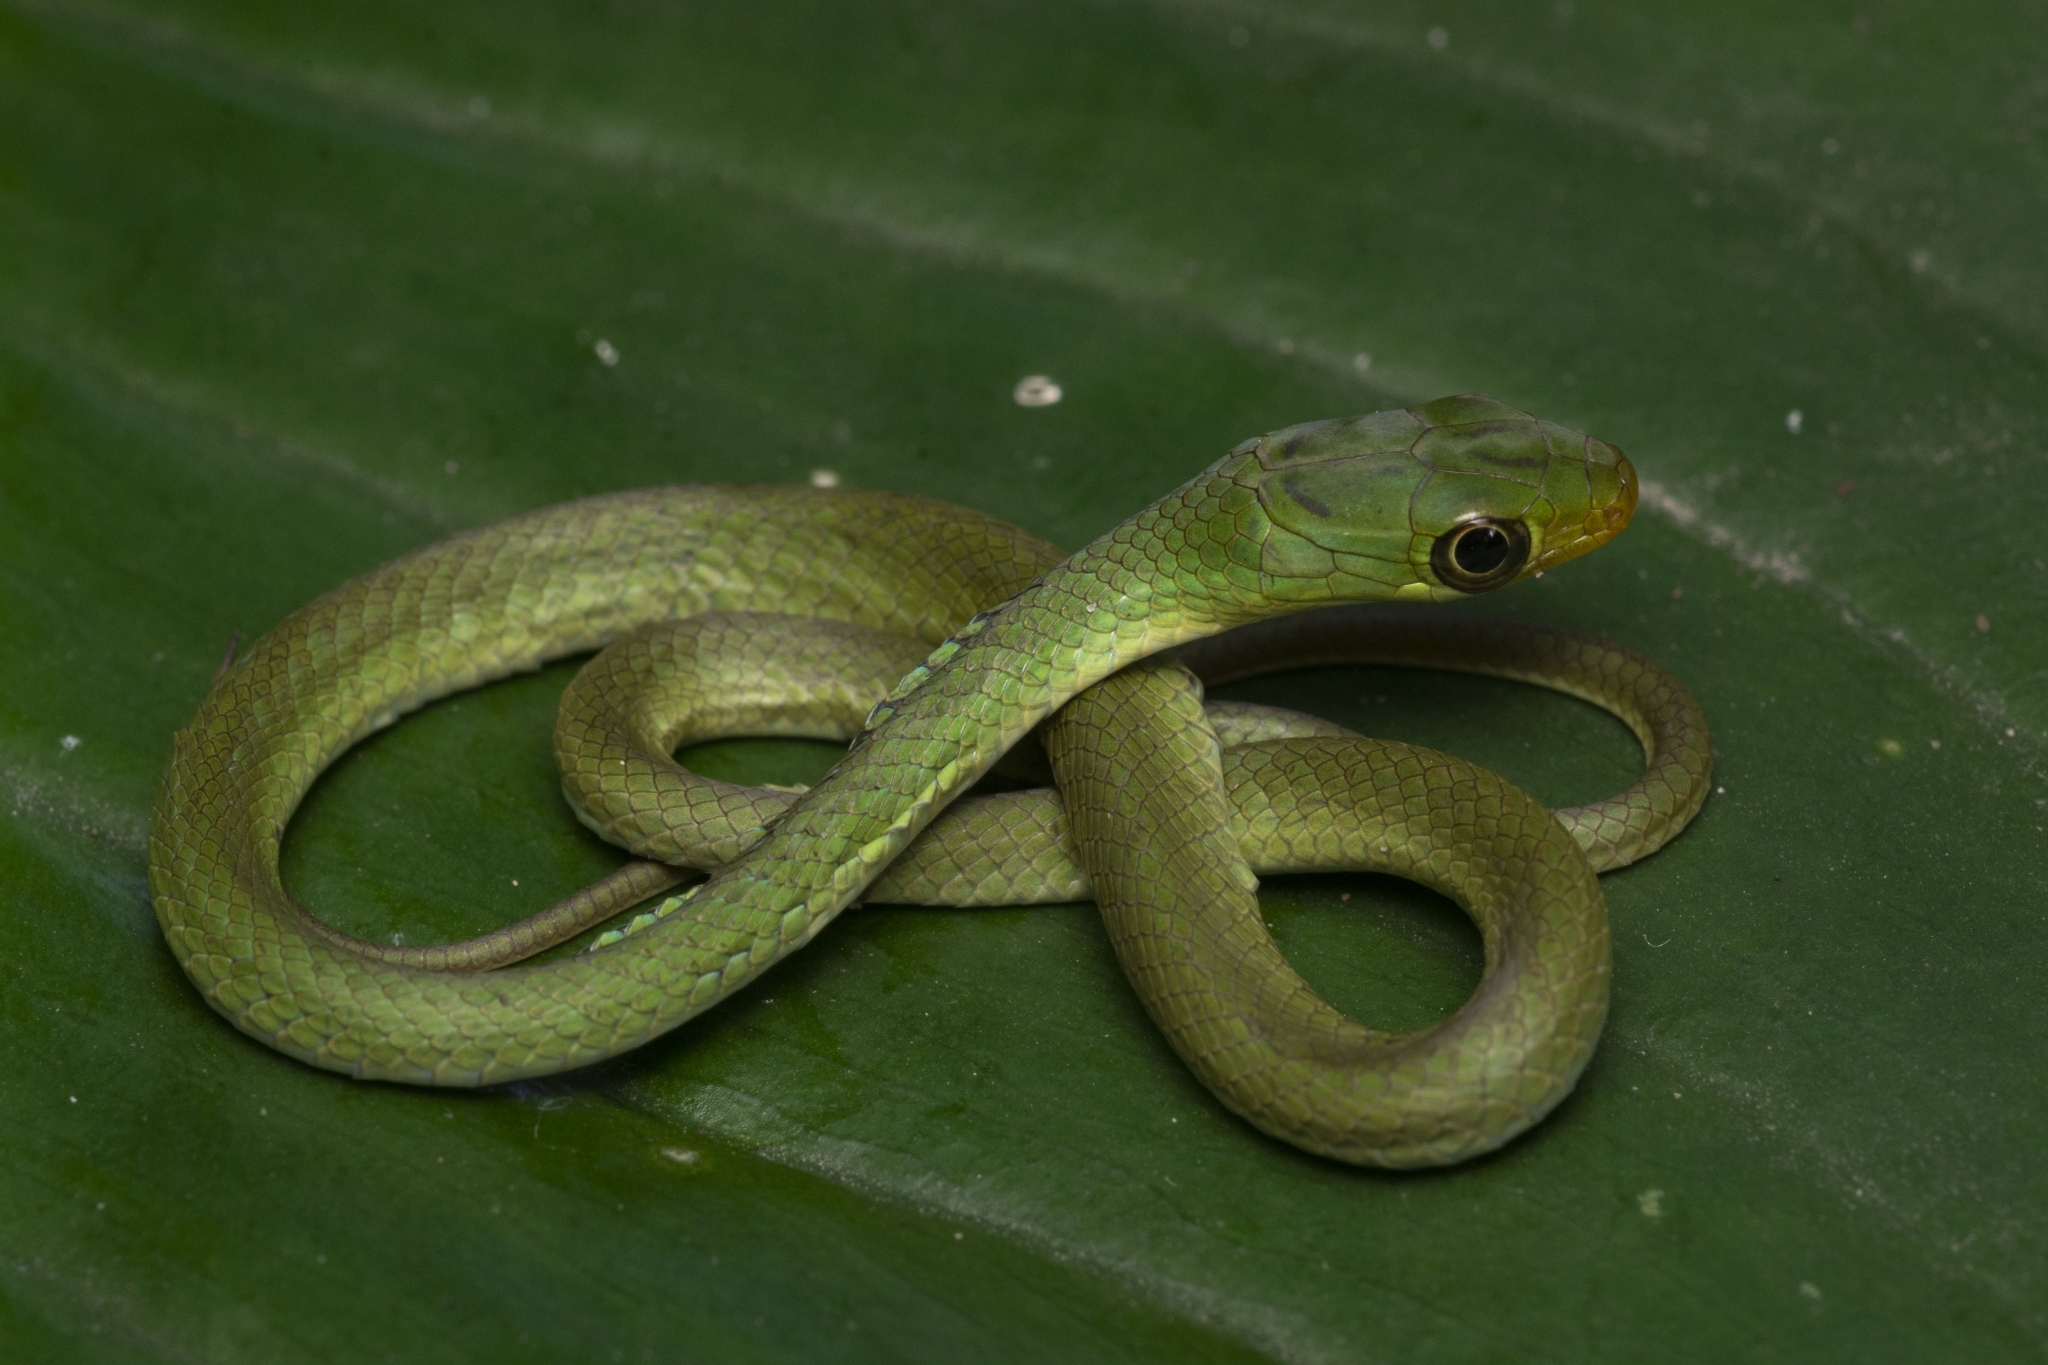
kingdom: Animalia
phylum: Chordata
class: Squamata
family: Colubridae
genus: Philothamnus
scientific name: Philothamnus hoplogaster
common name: Green water snake
